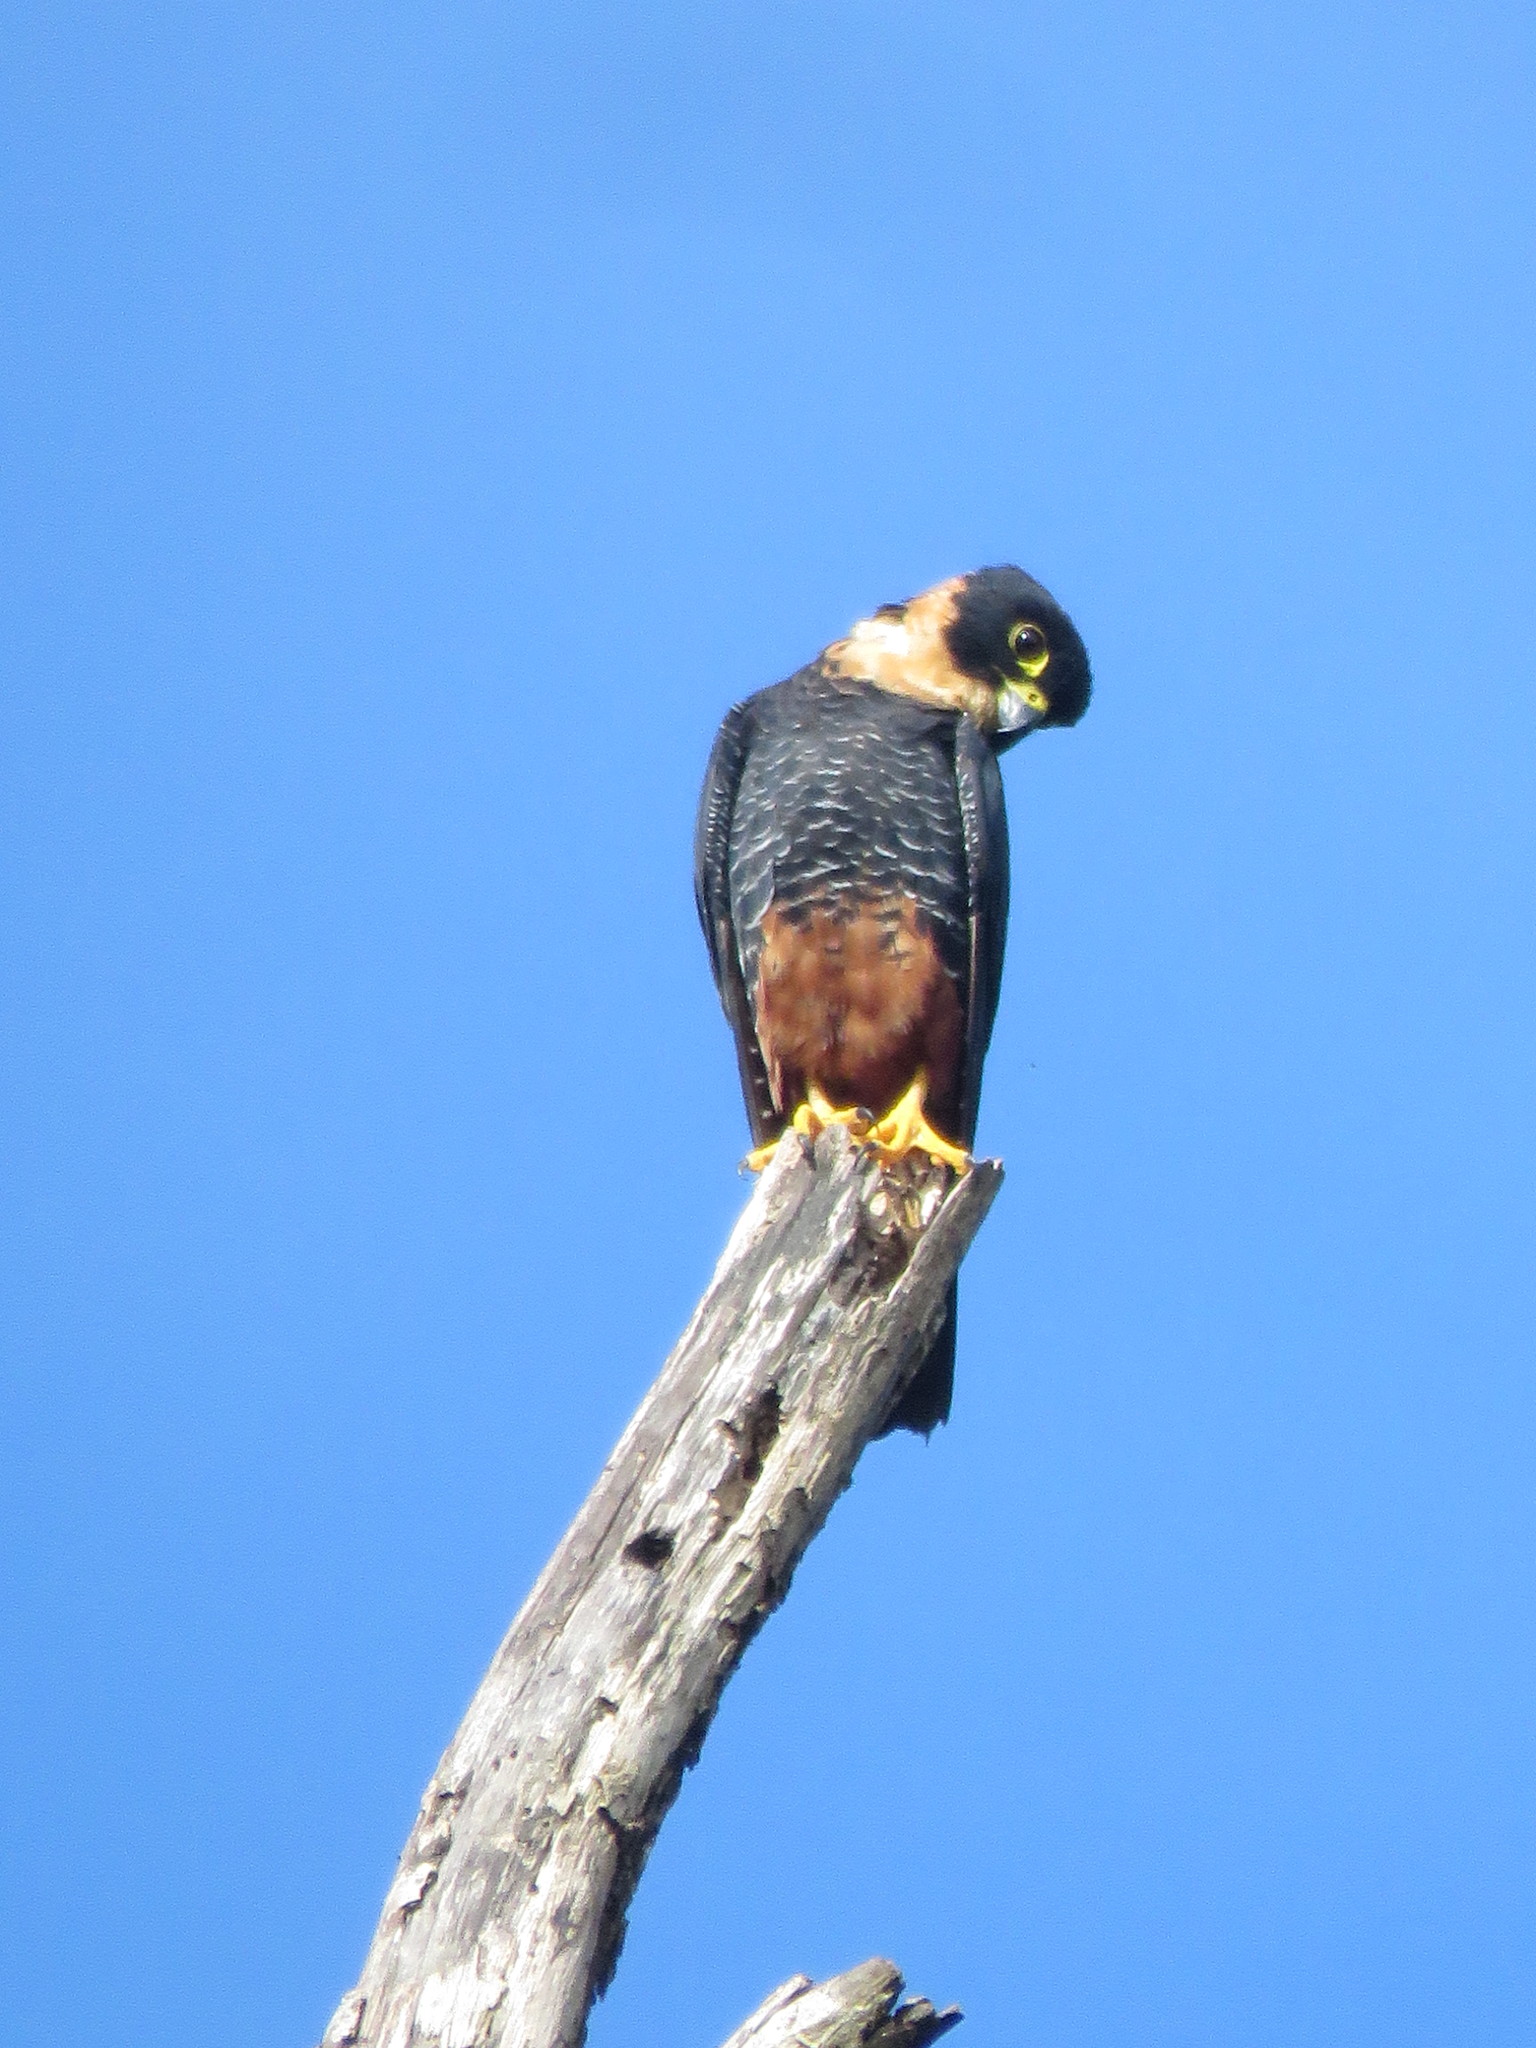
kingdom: Animalia
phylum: Chordata
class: Aves
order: Falconiformes
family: Falconidae
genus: Falco
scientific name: Falco rufigularis
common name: Bat falcon
